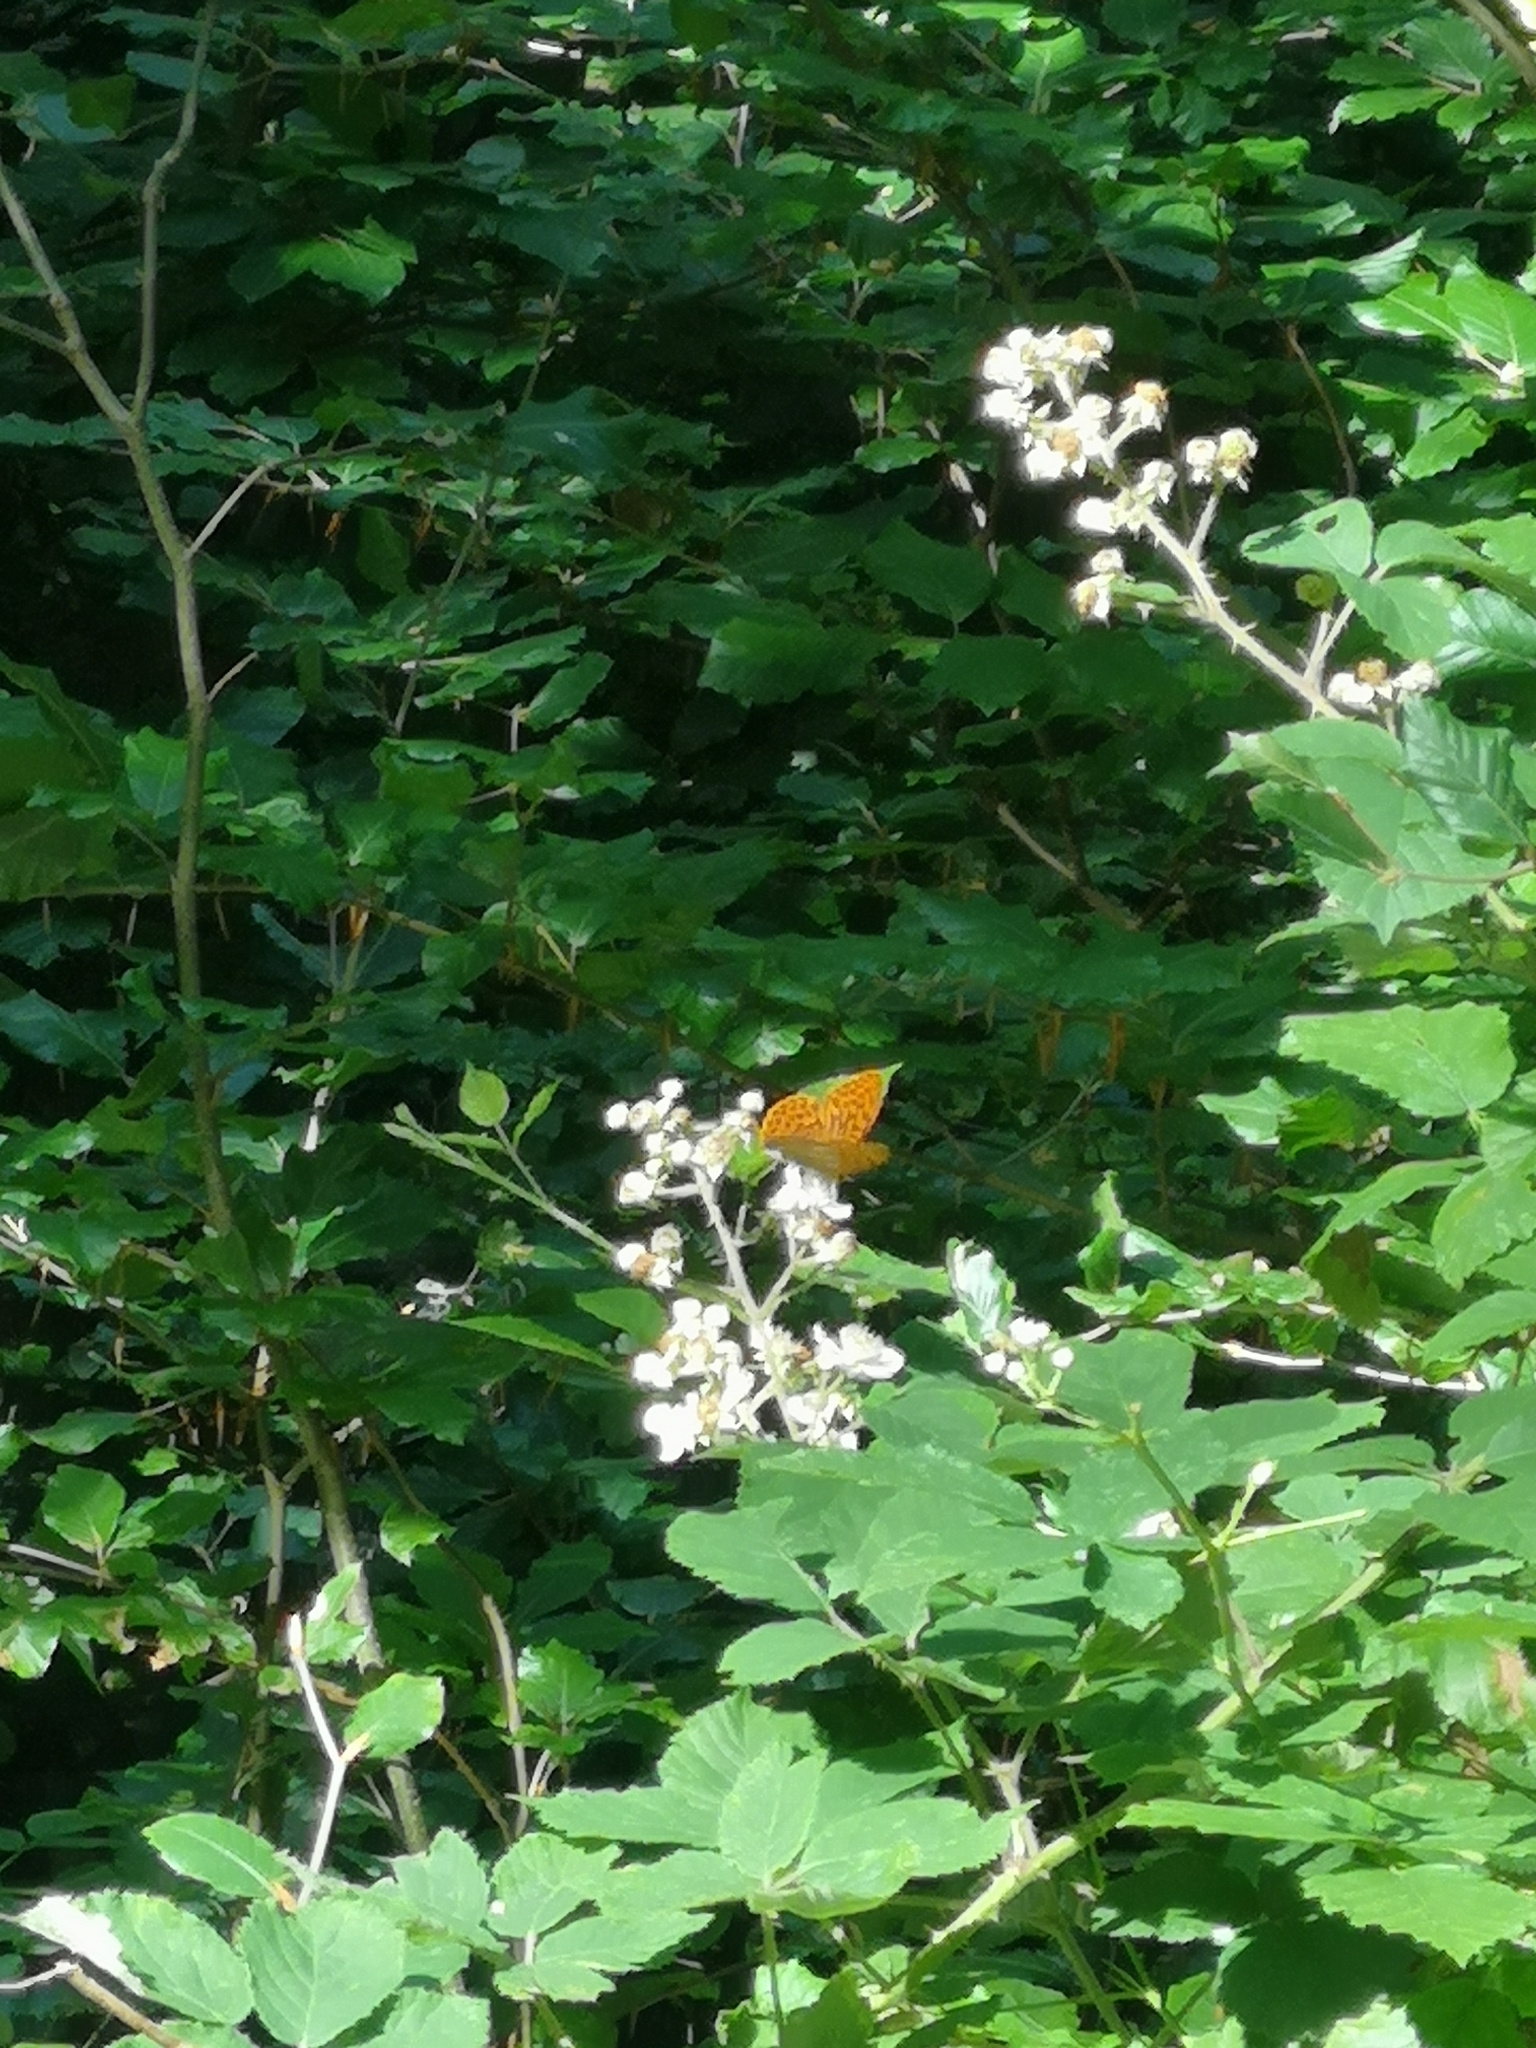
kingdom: Animalia
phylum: Arthropoda
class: Insecta
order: Lepidoptera
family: Nymphalidae
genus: Argynnis
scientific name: Argynnis paphia
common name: Silver-washed fritillary
